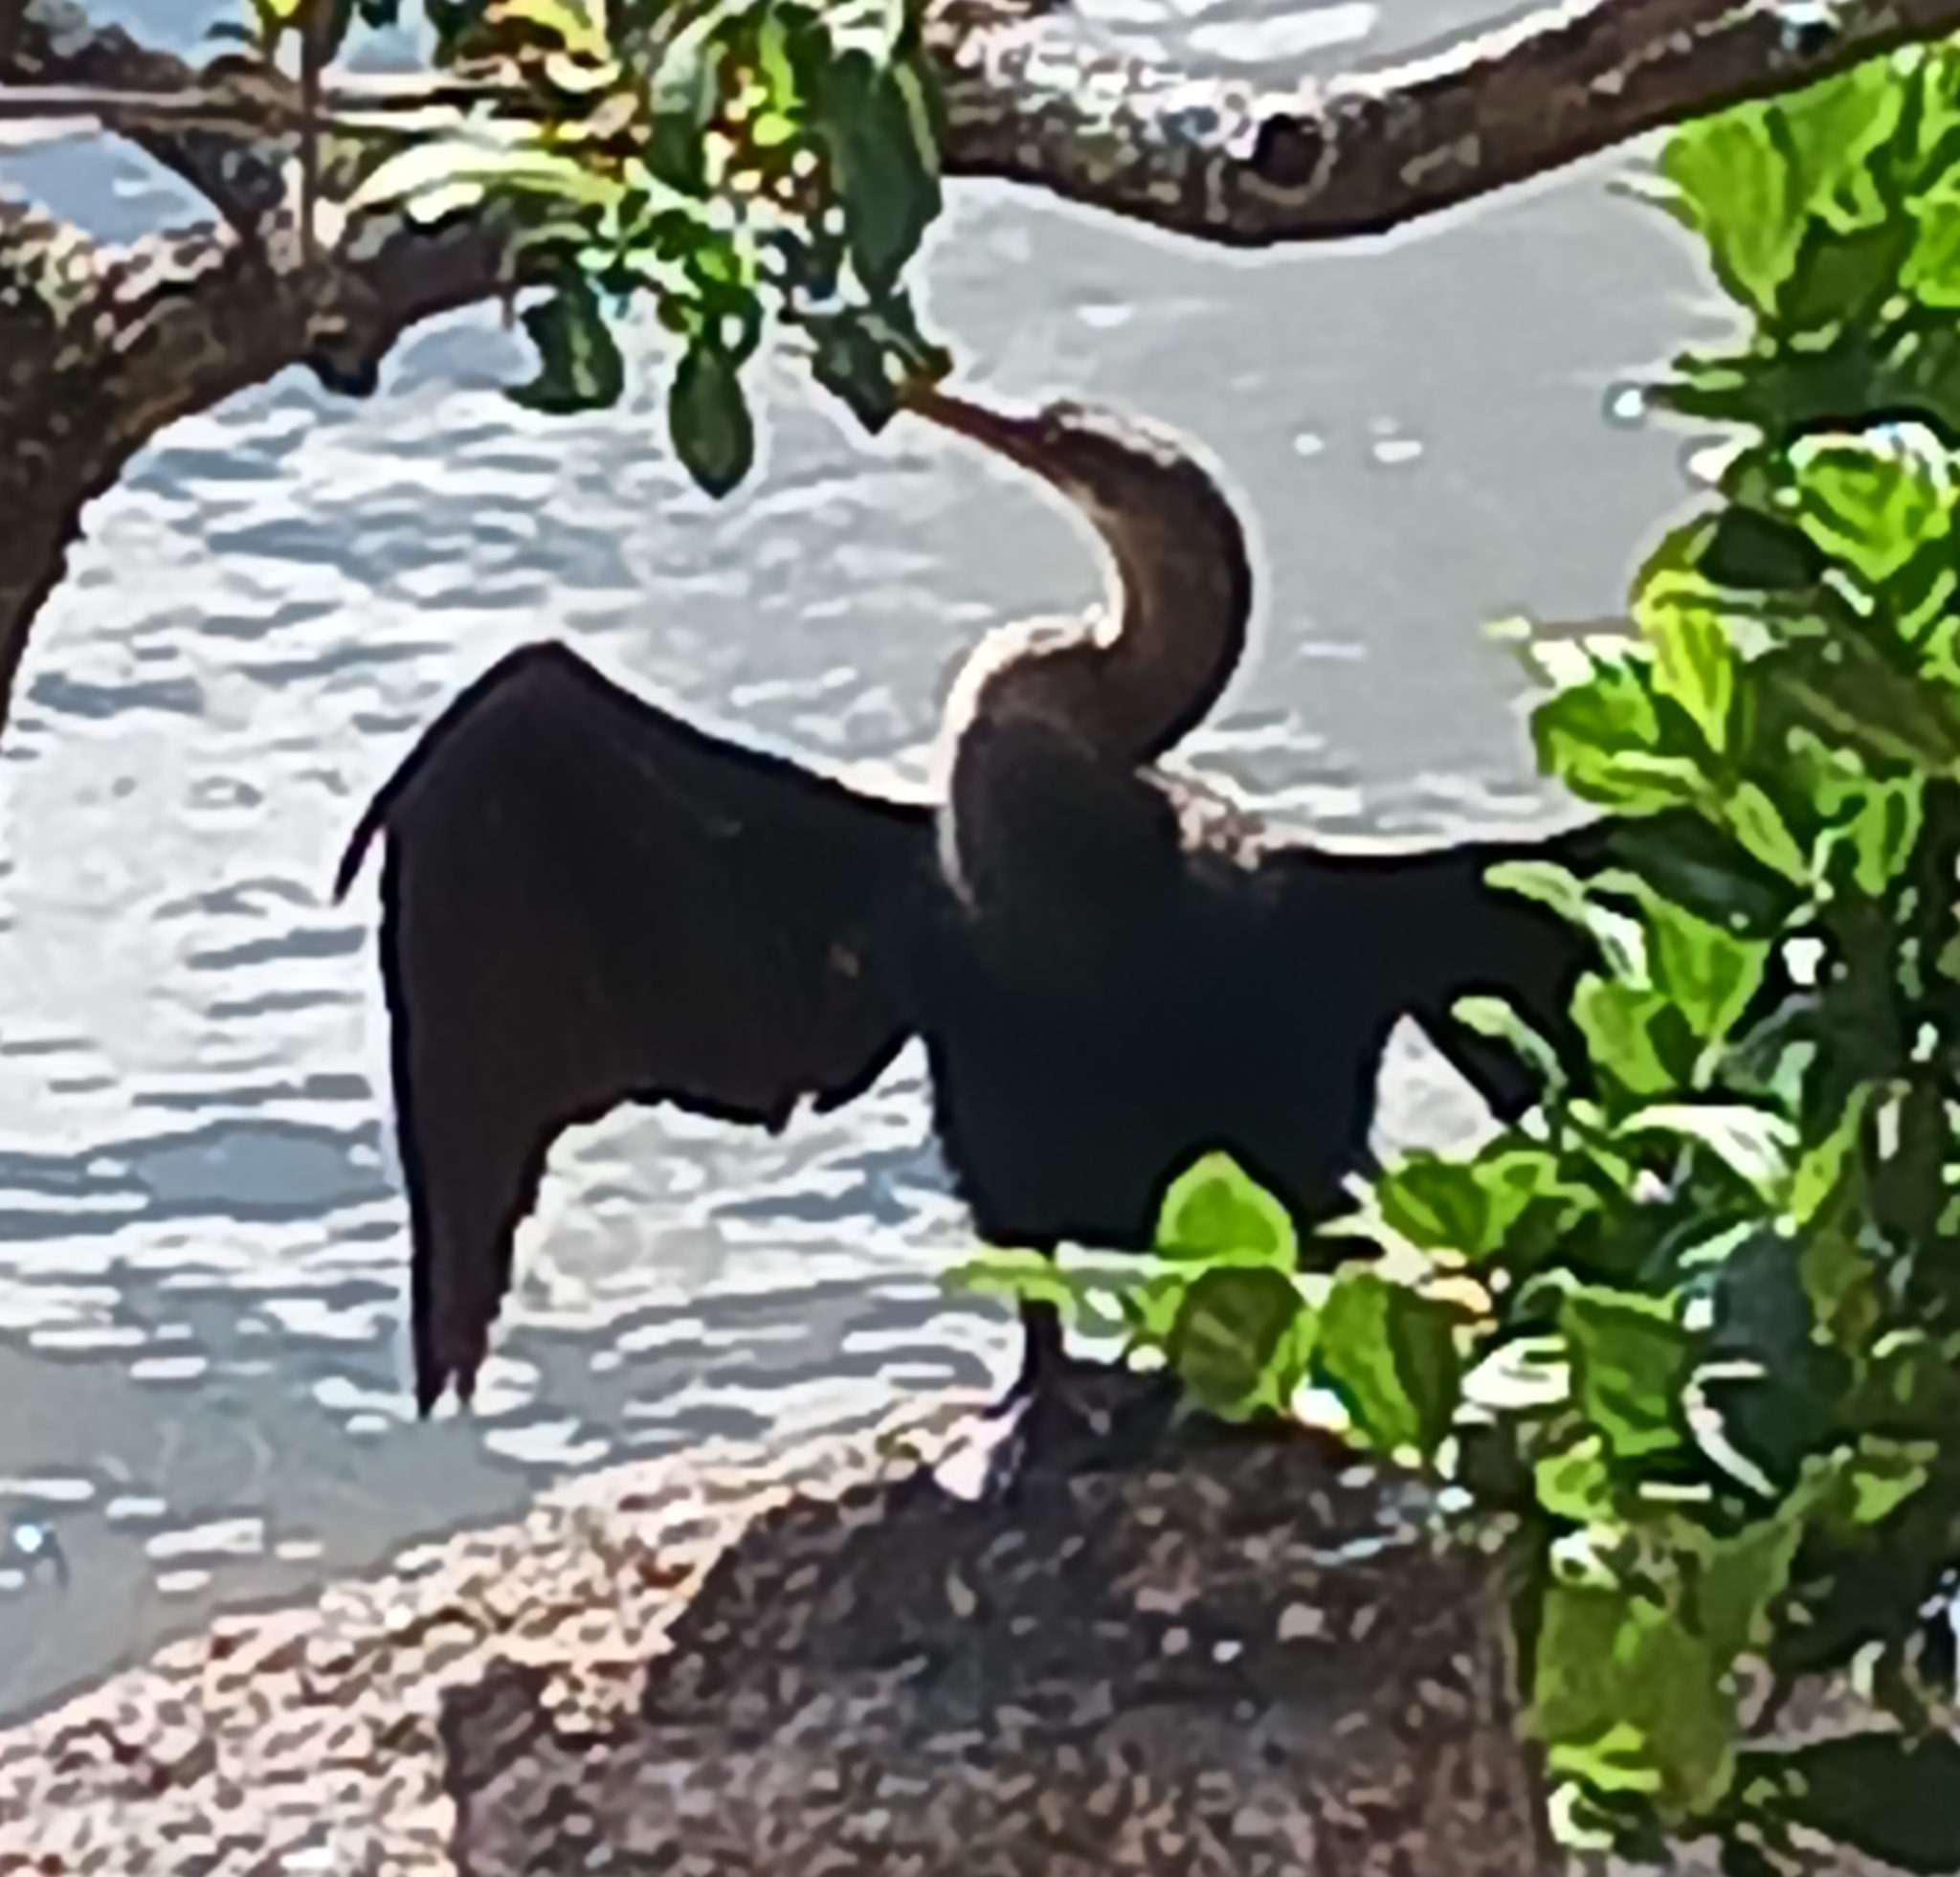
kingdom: Animalia
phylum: Chordata
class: Aves
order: Suliformes
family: Anhingidae
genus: Anhinga
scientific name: Anhinga anhinga
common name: Anhinga
